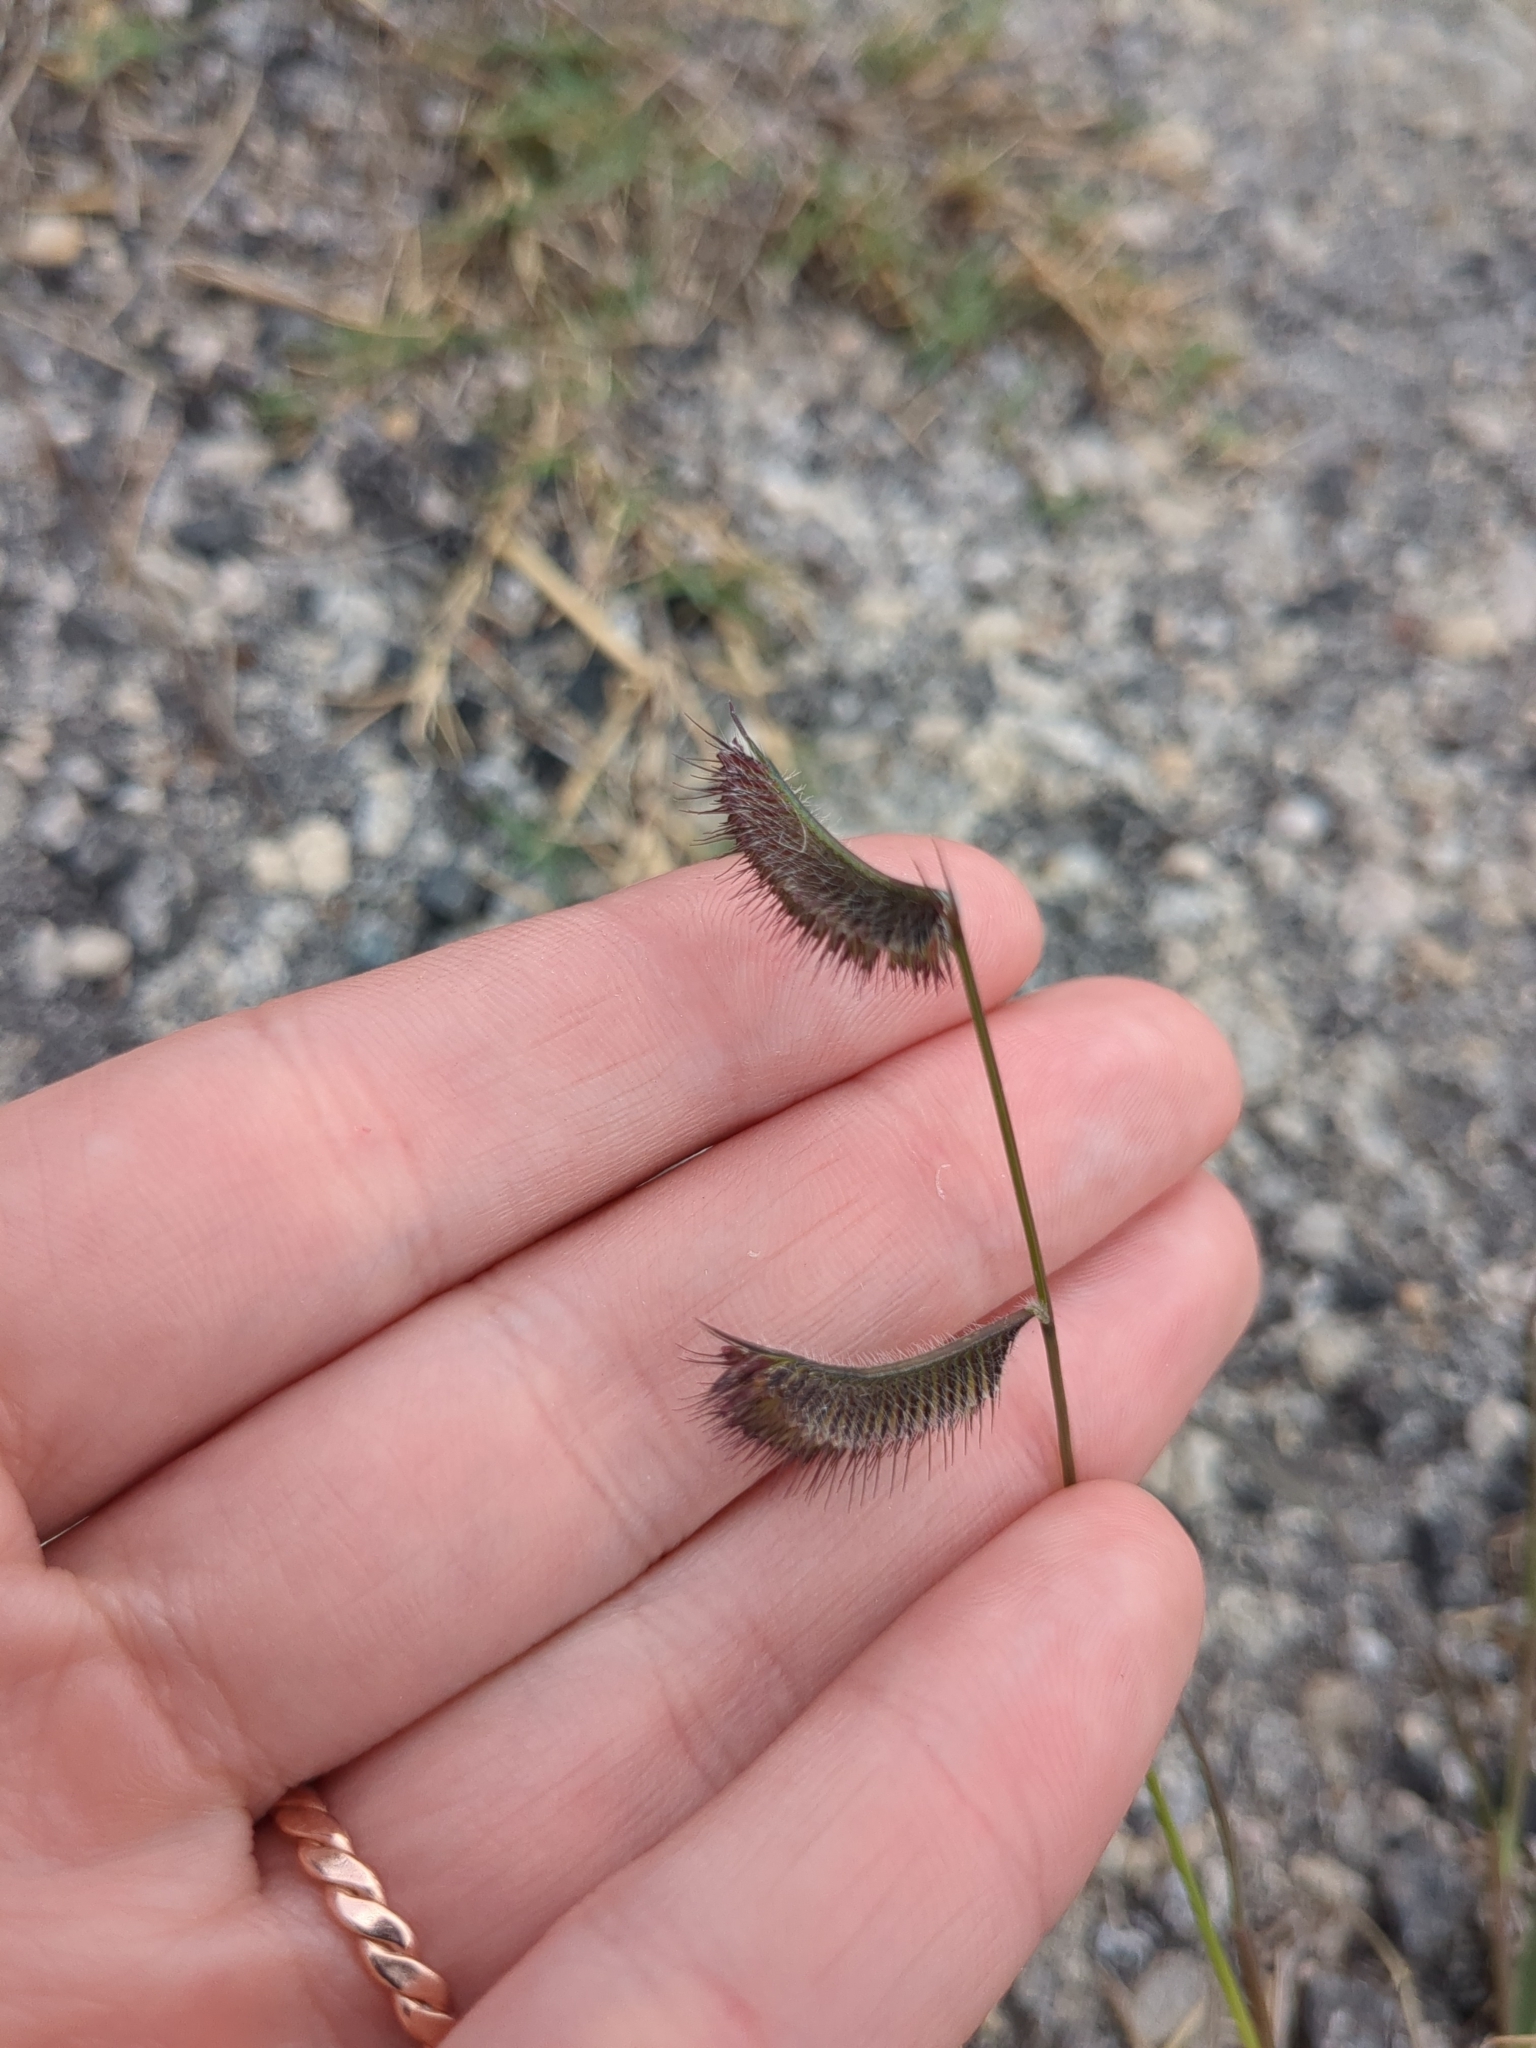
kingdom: Plantae
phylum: Tracheophyta
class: Liliopsida
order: Poales
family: Poaceae
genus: Bouteloua
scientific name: Bouteloua hirsuta
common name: Hairy grama
